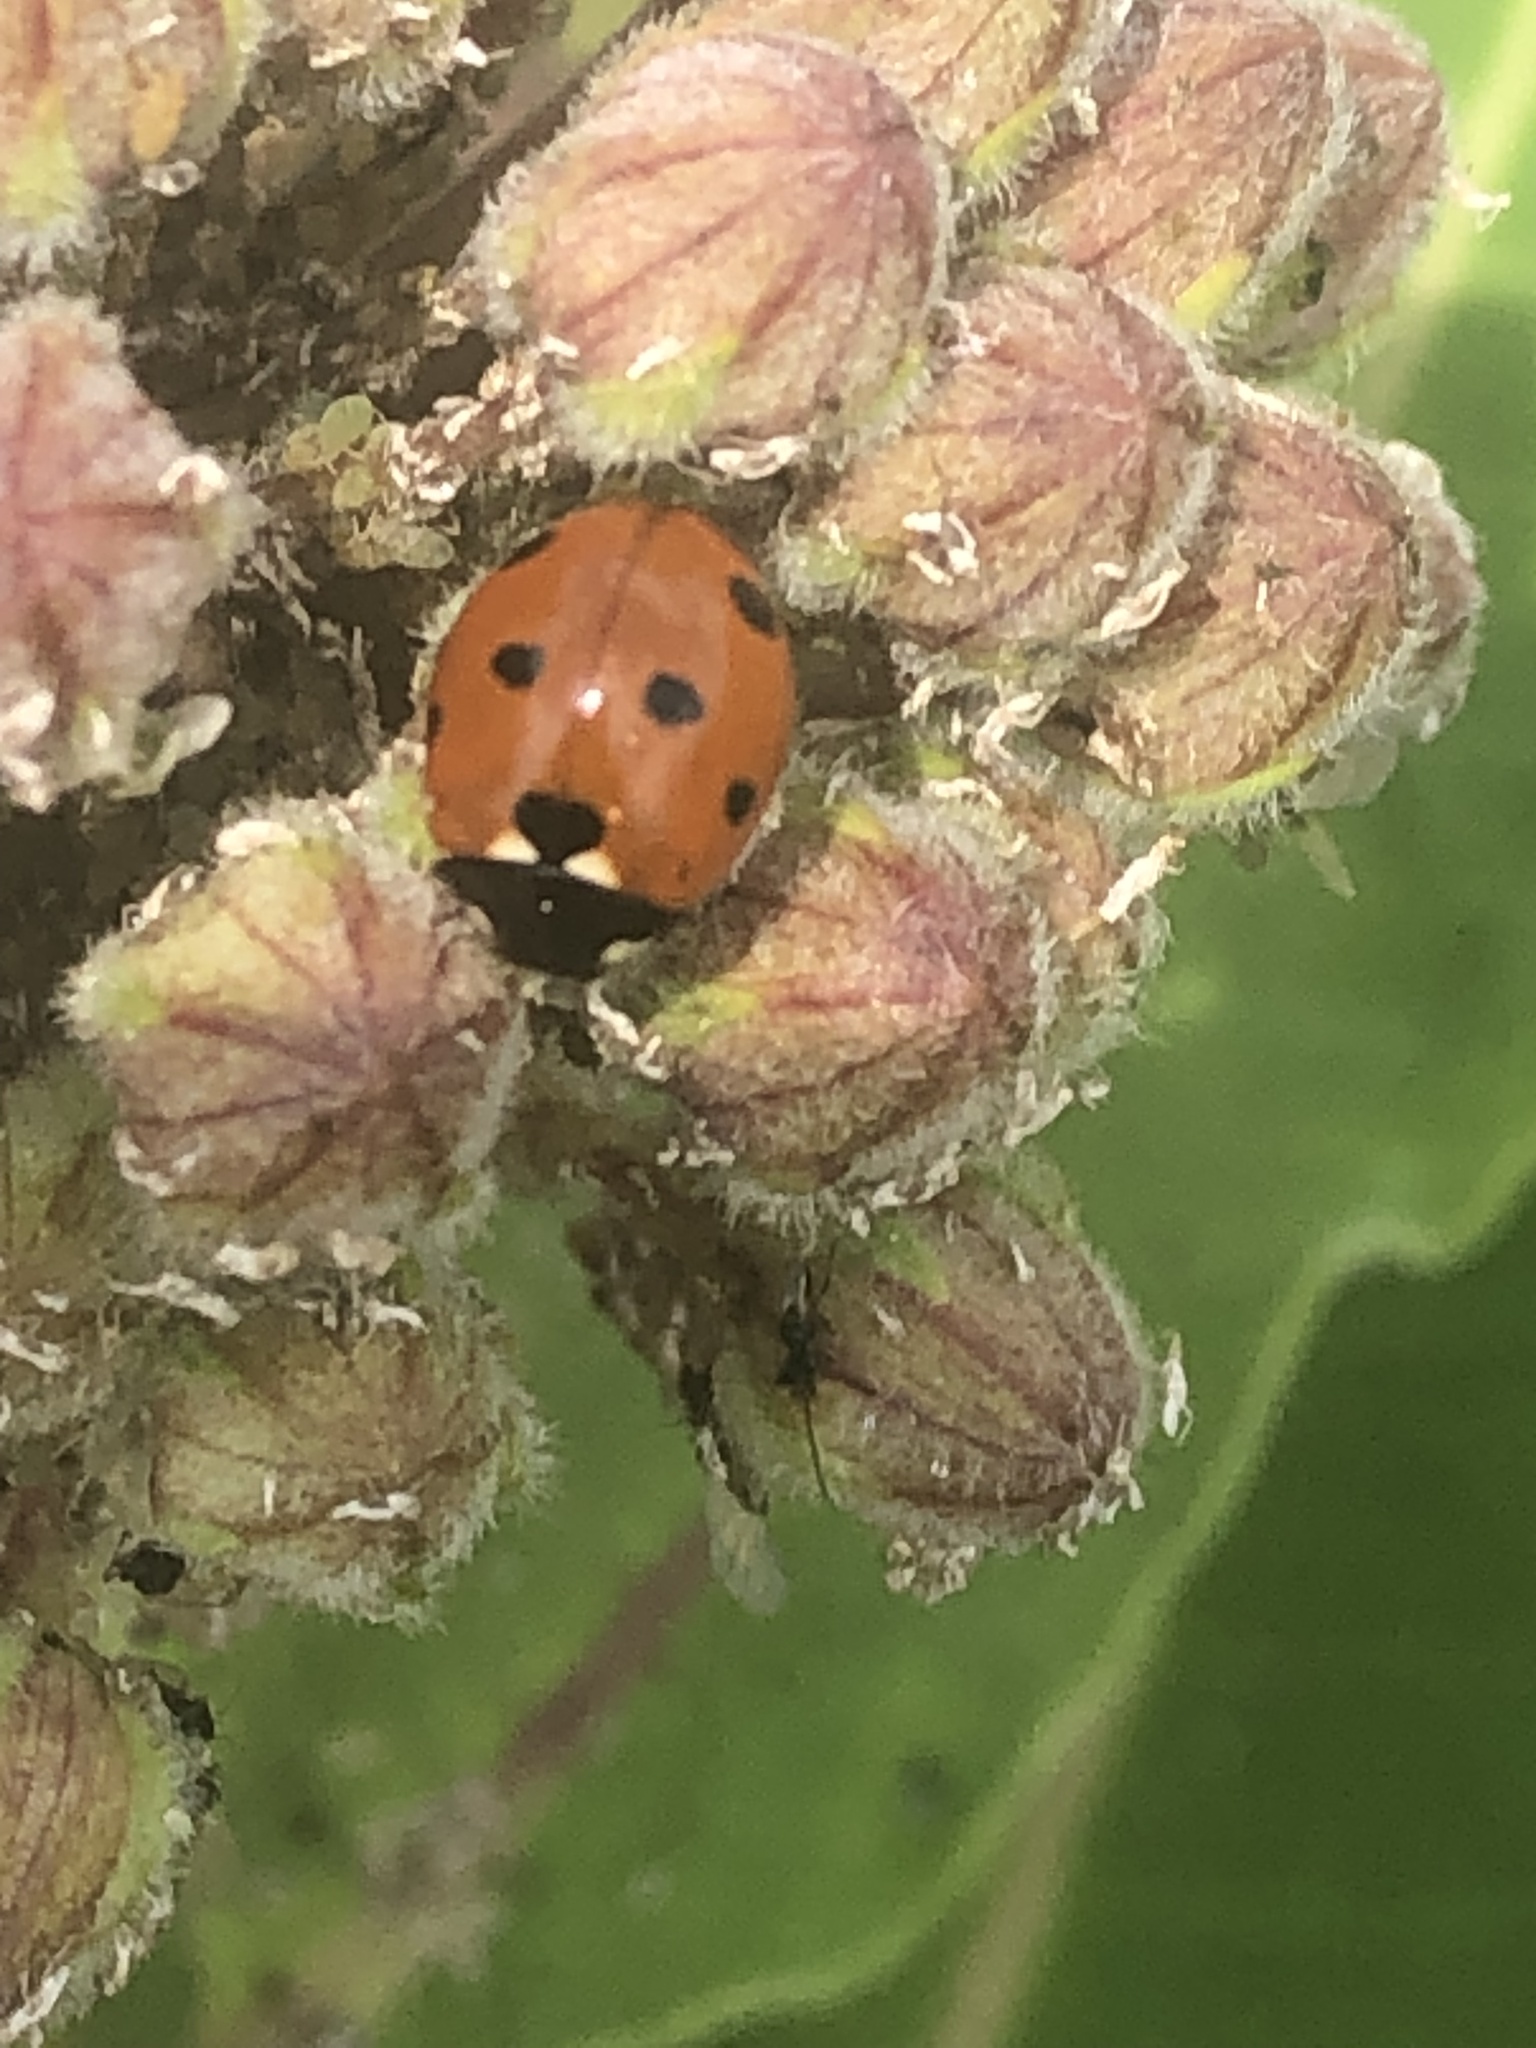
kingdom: Animalia
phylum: Arthropoda
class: Insecta
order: Coleoptera
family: Coccinellidae
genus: Coccinella
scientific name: Coccinella septempunctata
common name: Sevenspotted lady beetle
